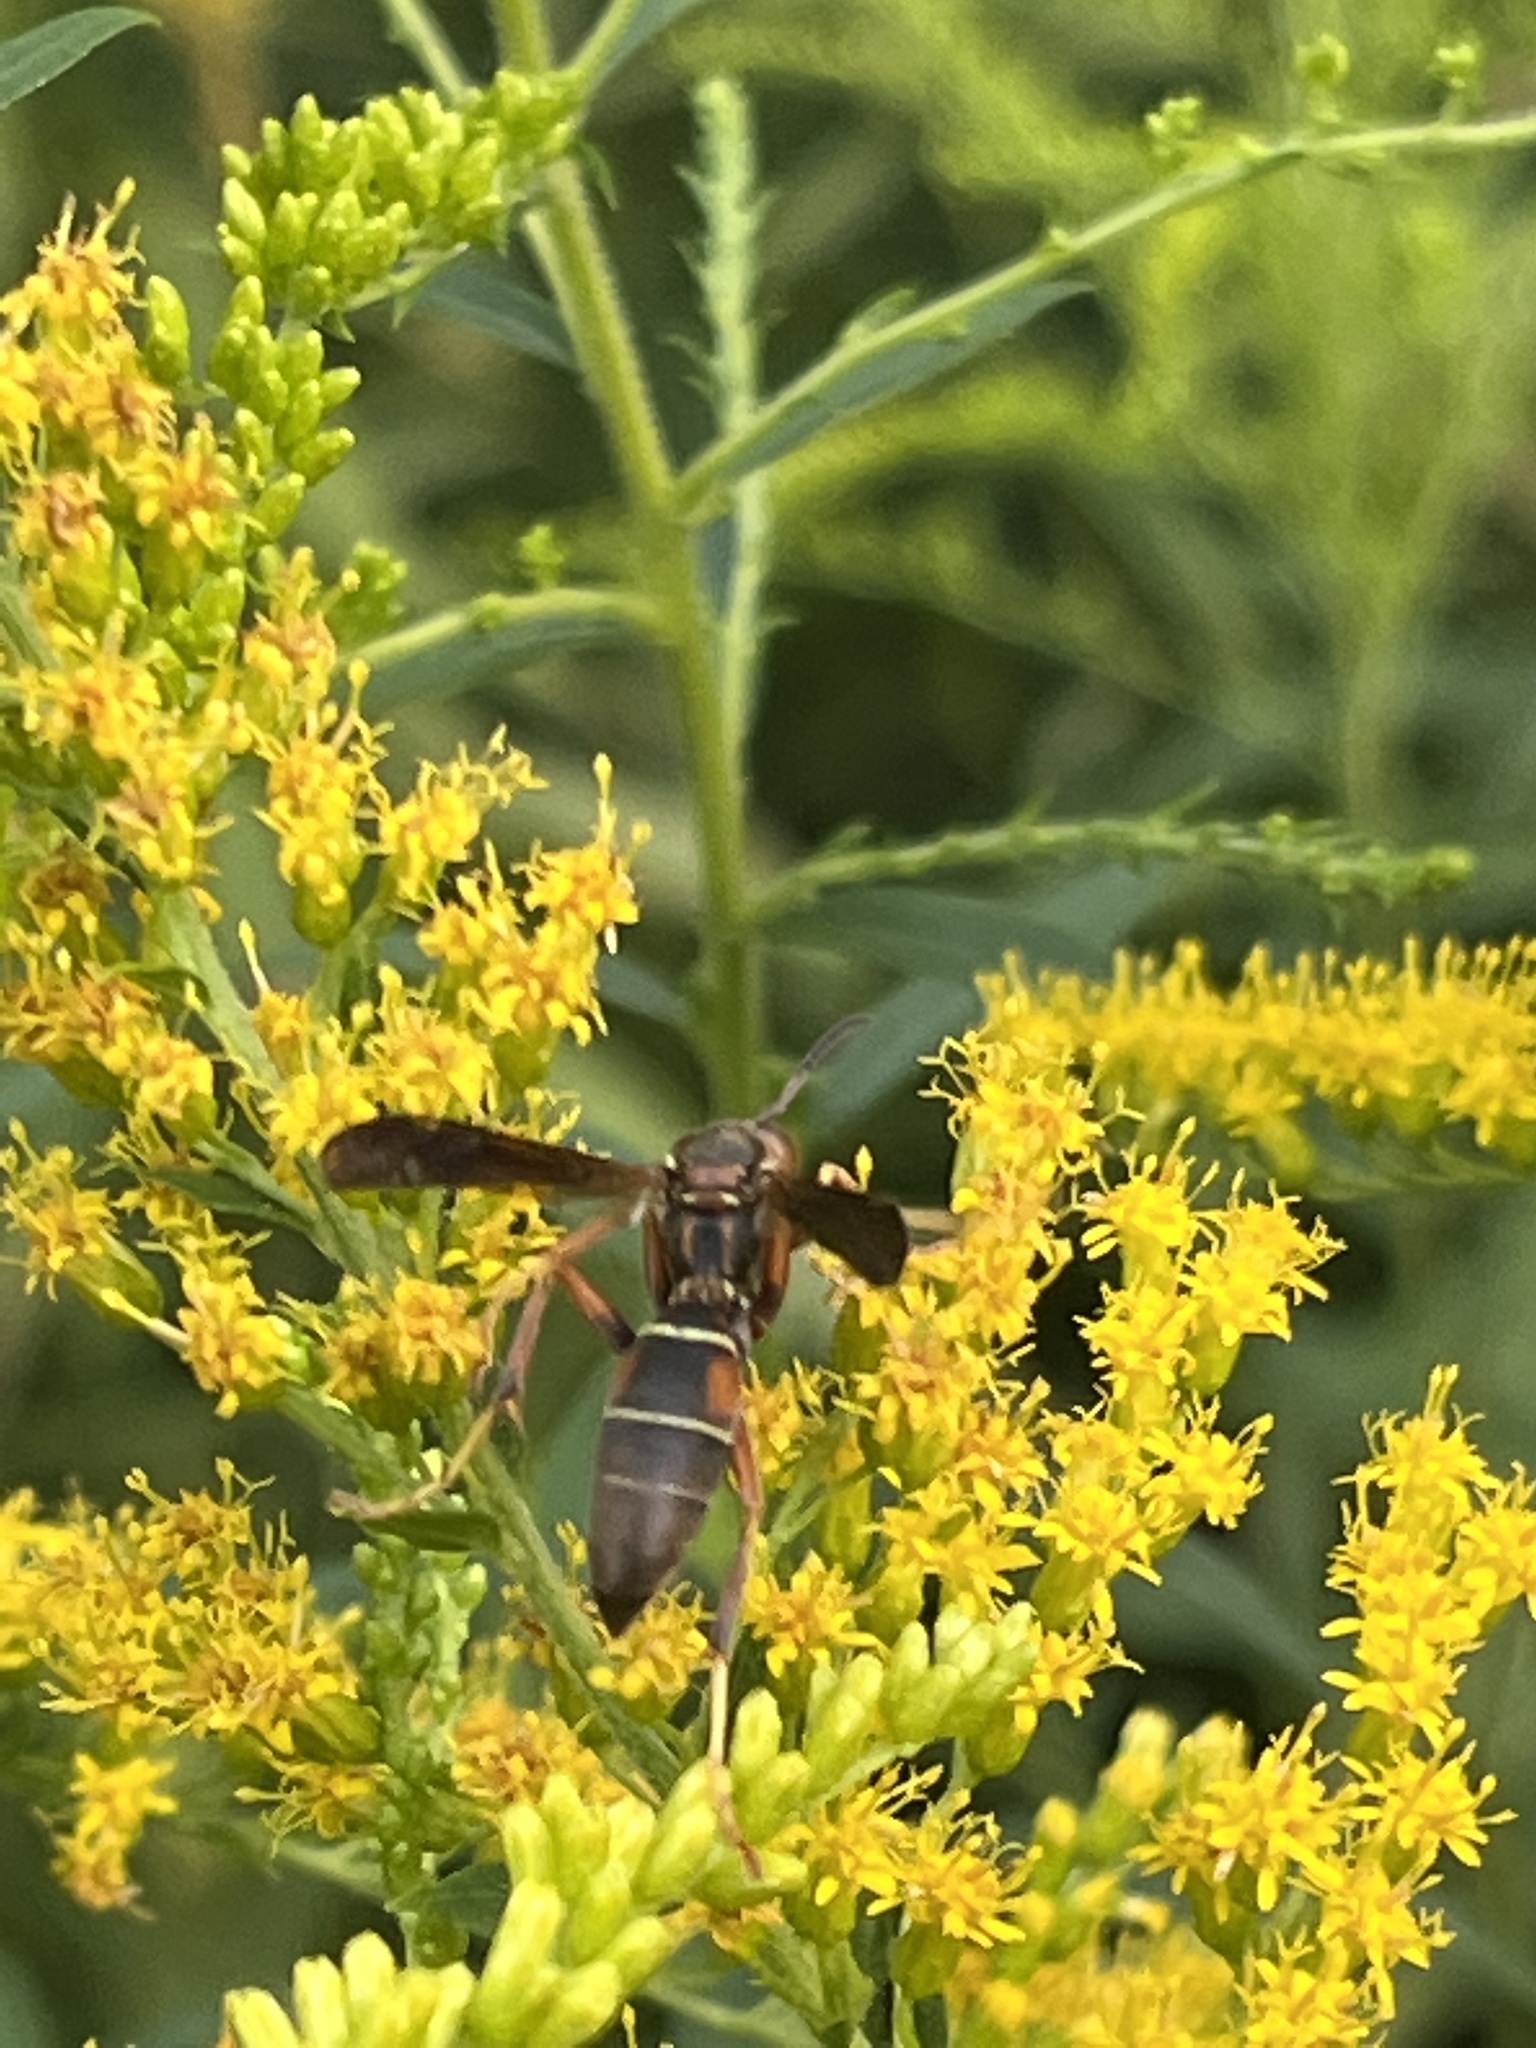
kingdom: Animalia
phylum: Arthropoda
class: Insecta
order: Hymenoptera
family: Eumenidae
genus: Polistes
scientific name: Polistes fuscatus
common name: Dark paper wasp
